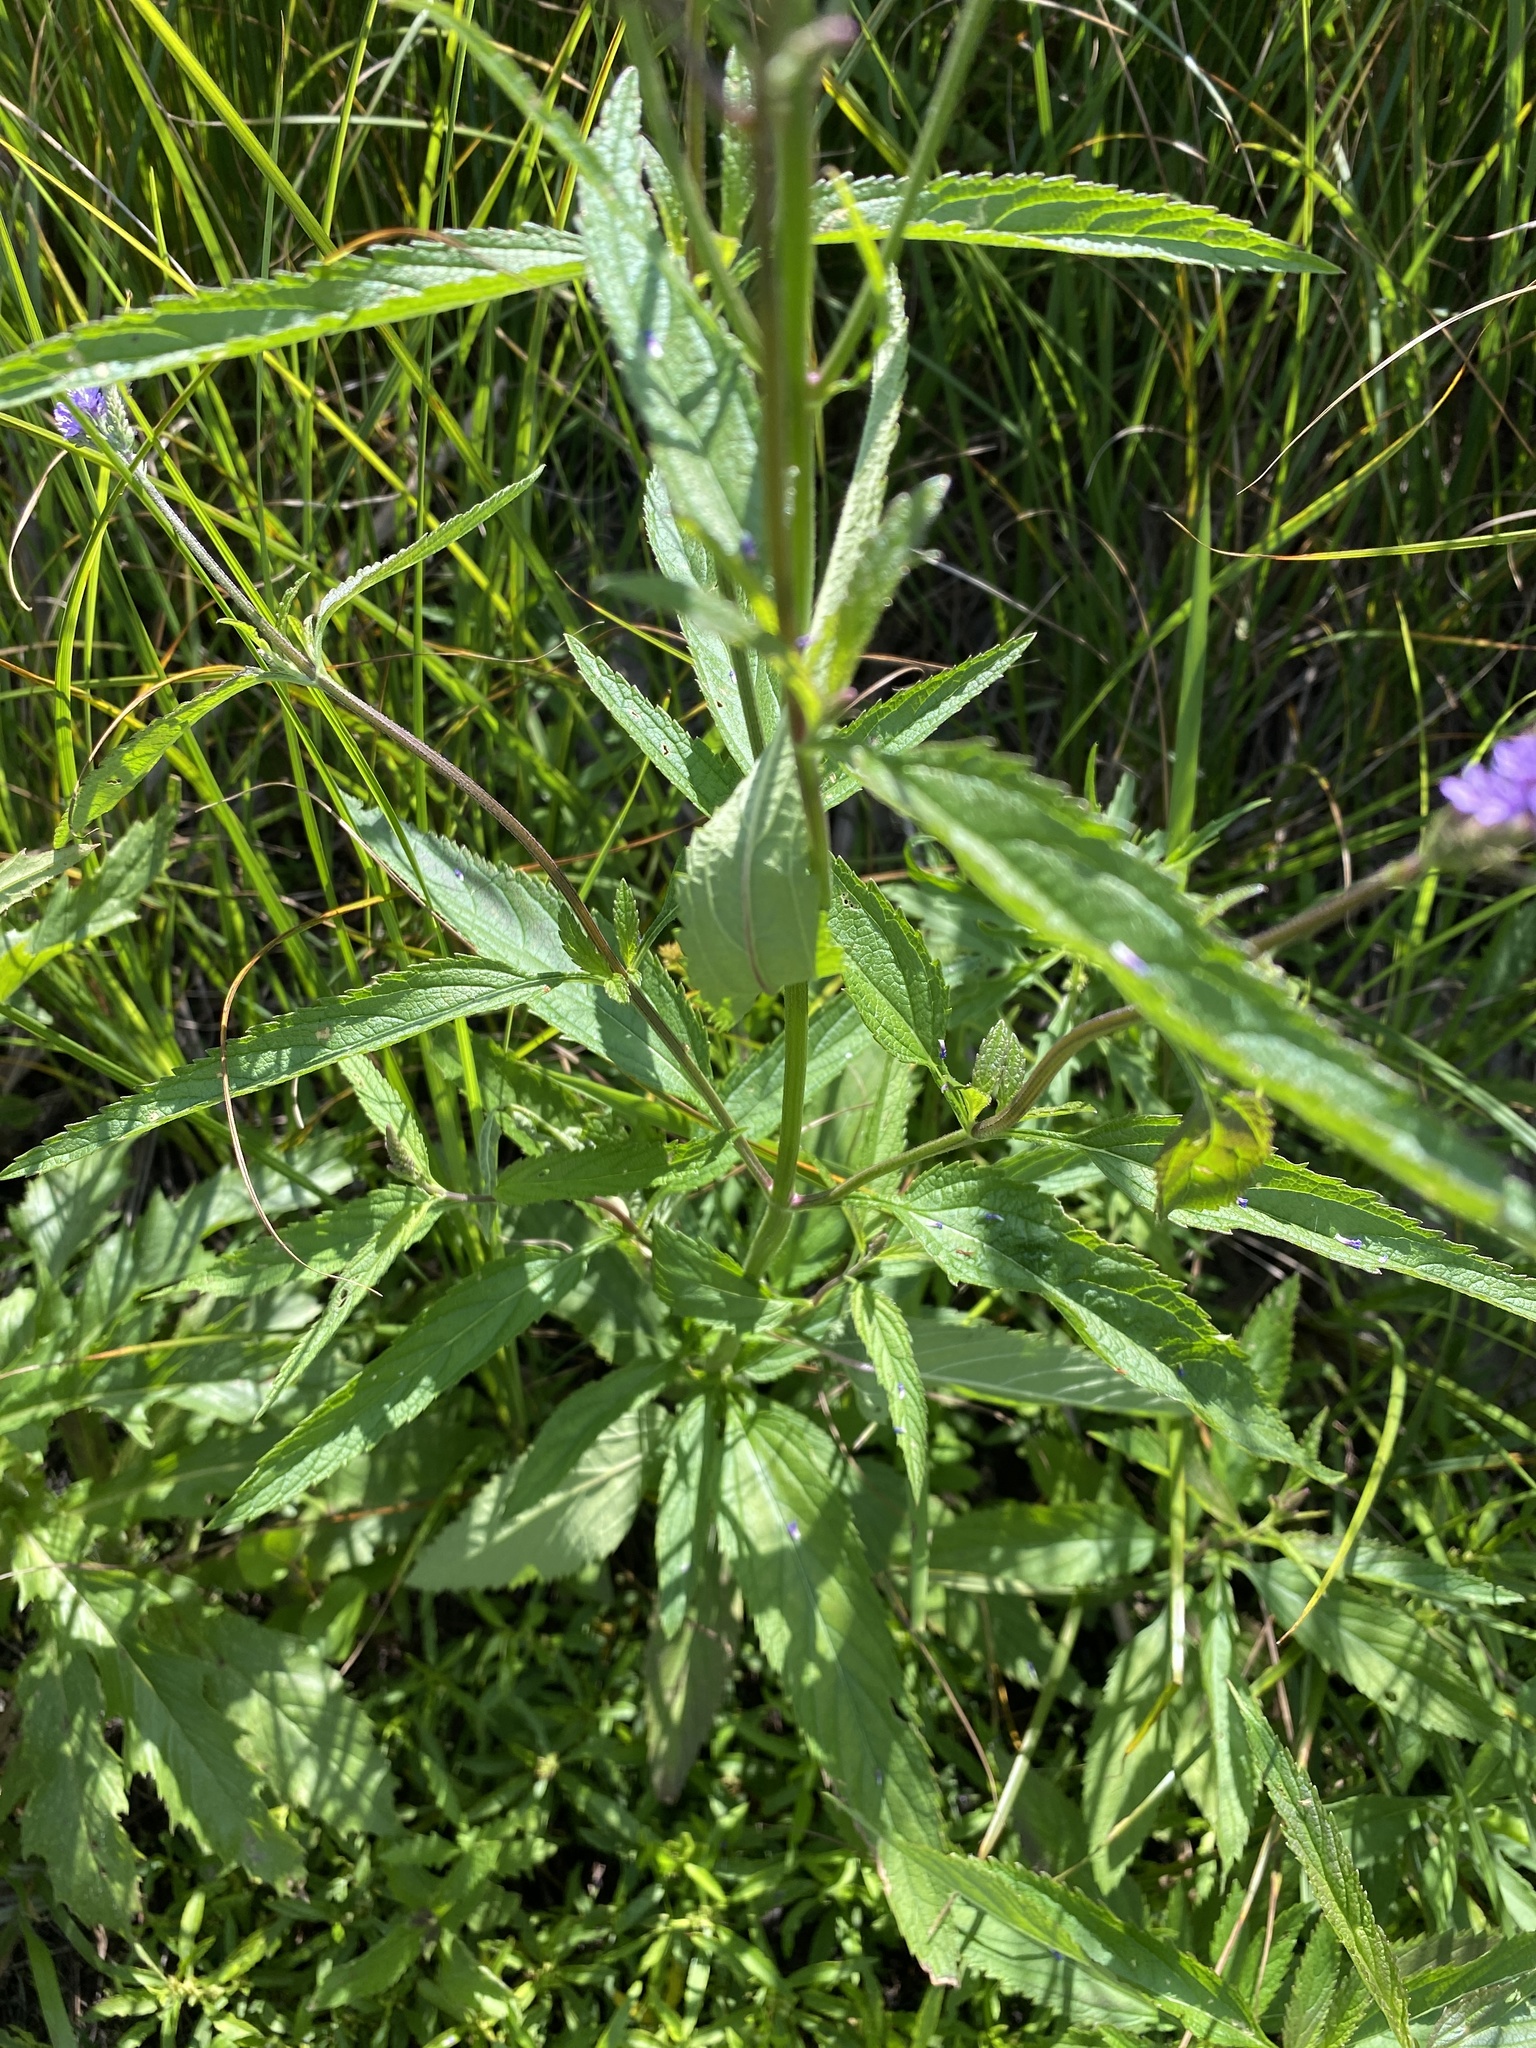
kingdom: Plantae
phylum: Tracheophyta
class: Magnoliopsida
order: Lamiales
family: Verbenaceae
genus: Verbena
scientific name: Verbena hastata
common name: American blue vervain
